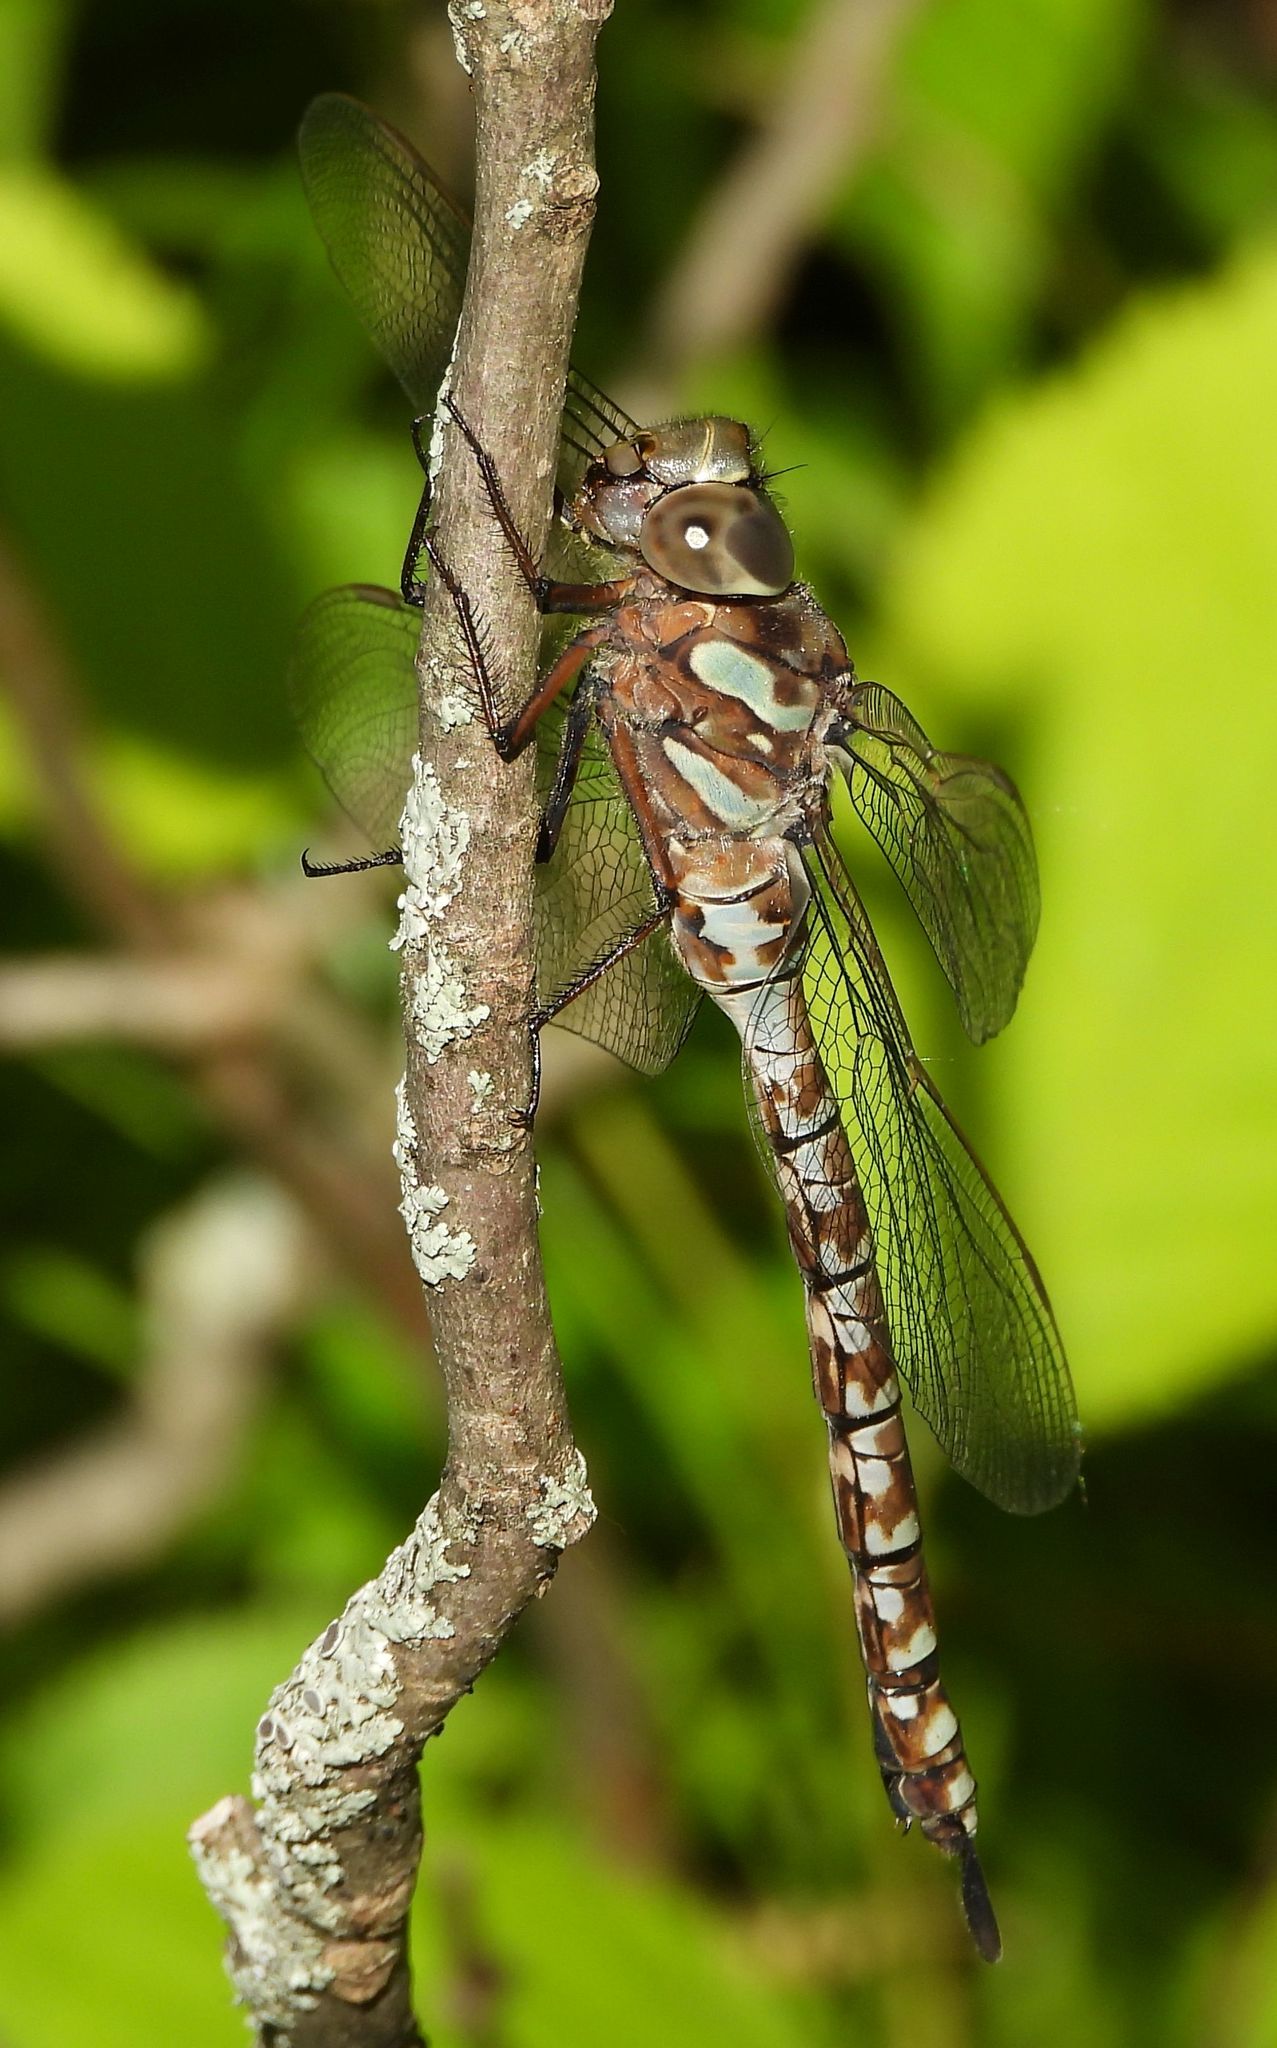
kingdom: Animalia
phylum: Arthropoda
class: Insecta
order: Odonata
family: Aeshnidae
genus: Aeshna
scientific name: Aeshna canadensis
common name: Canada darner
